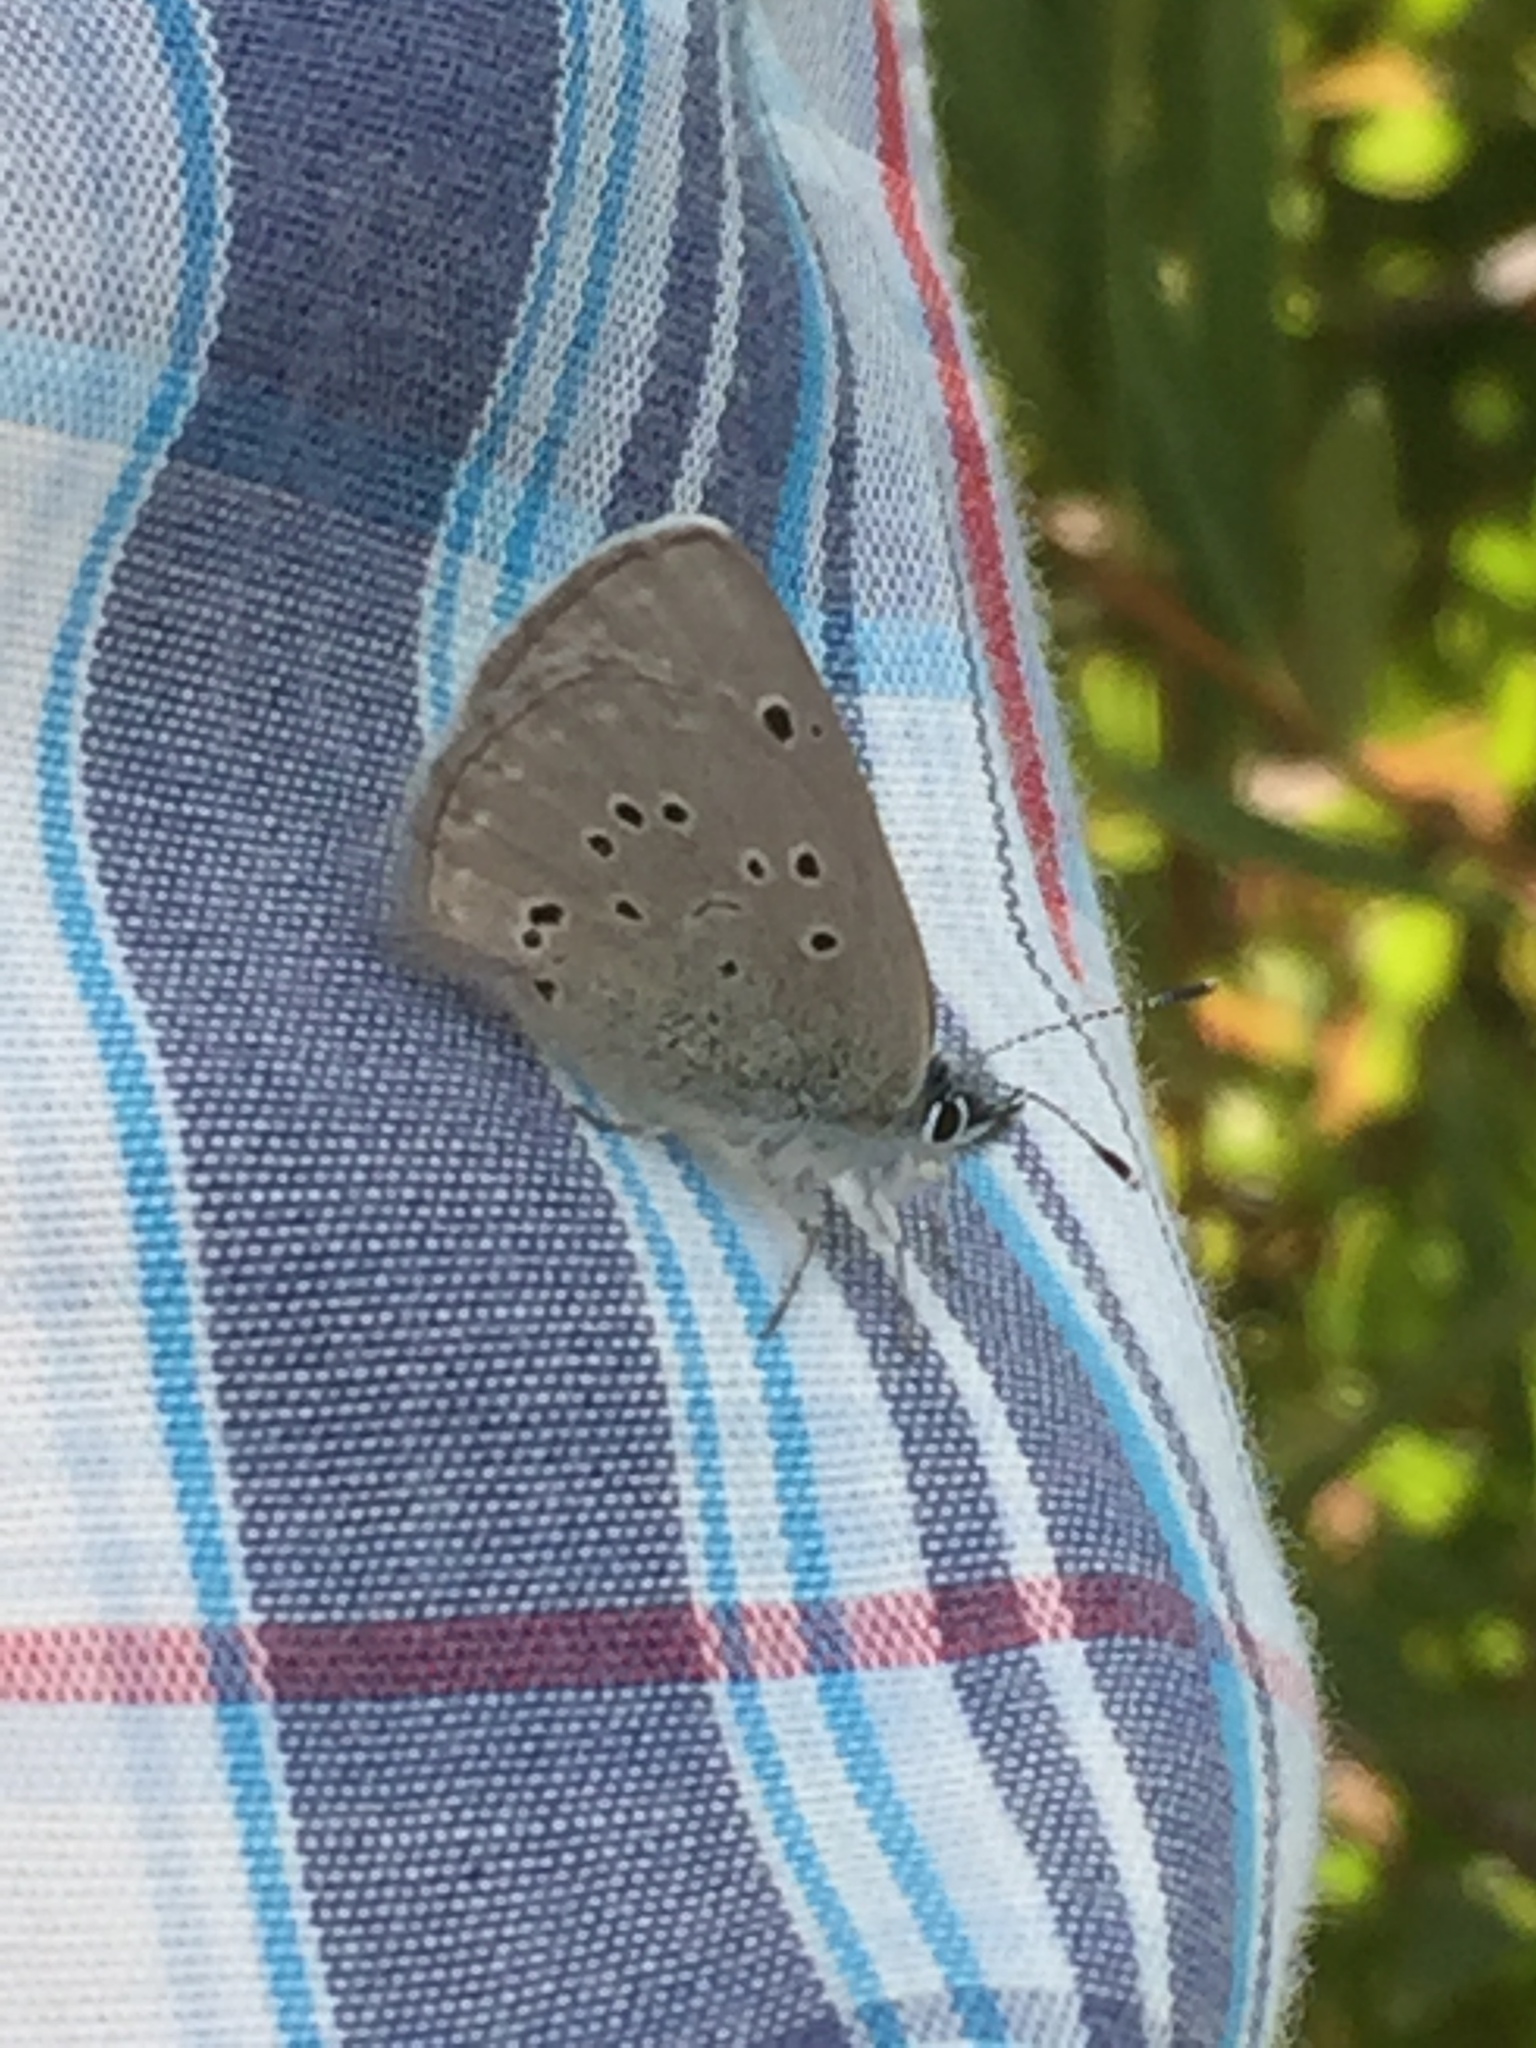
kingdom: Animalia
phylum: Arthropoda
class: Insecta
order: Lepidoptera
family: Lycaenidae
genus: Glaucopsyche
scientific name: Glaucopsyche melanops
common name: Black-eyed blue
